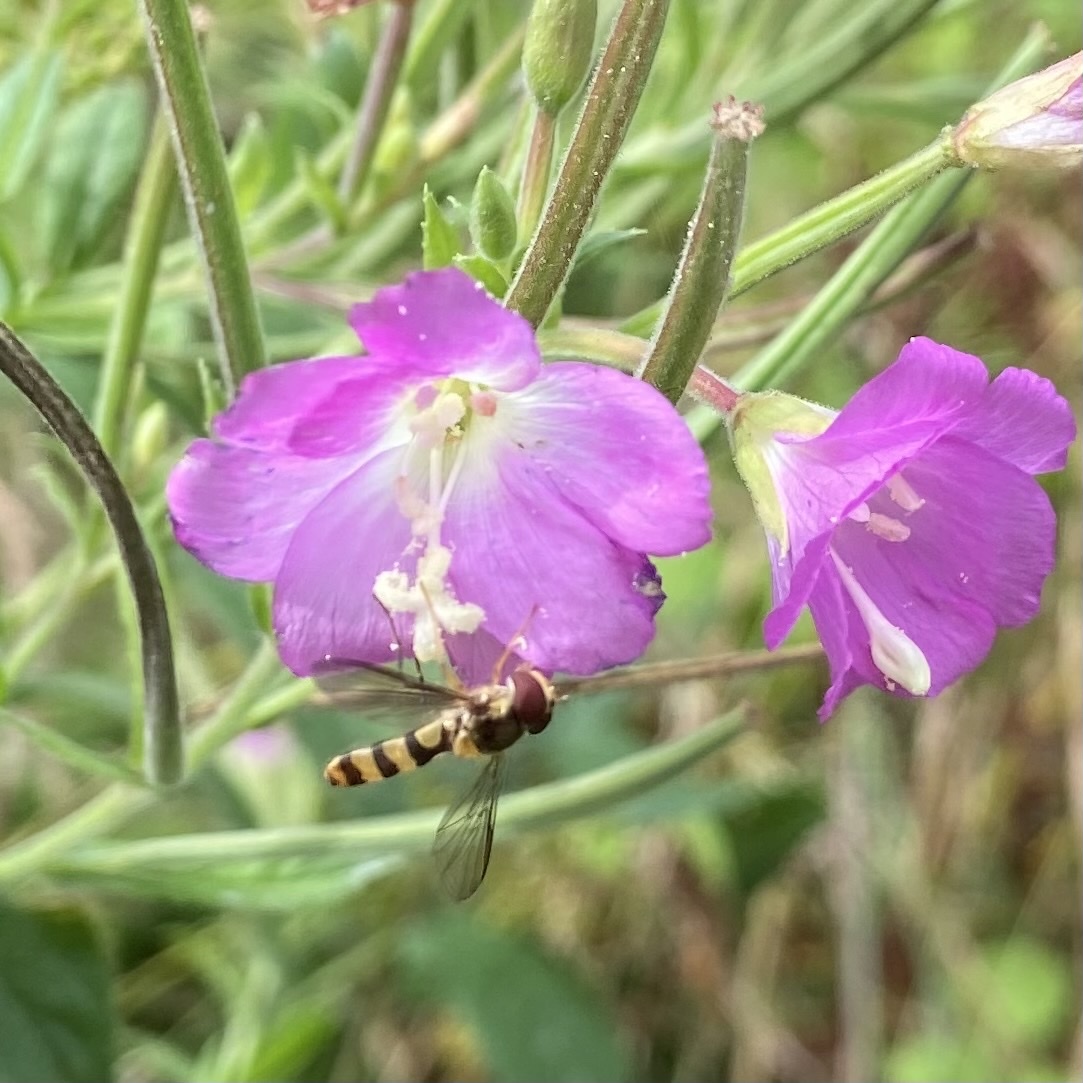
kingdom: Animalia
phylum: Arthropoda
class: Insecta
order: Diptera
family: Syrphidae
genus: Meliscaeva
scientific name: Meliscaeva cinctella
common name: American thintail fly
